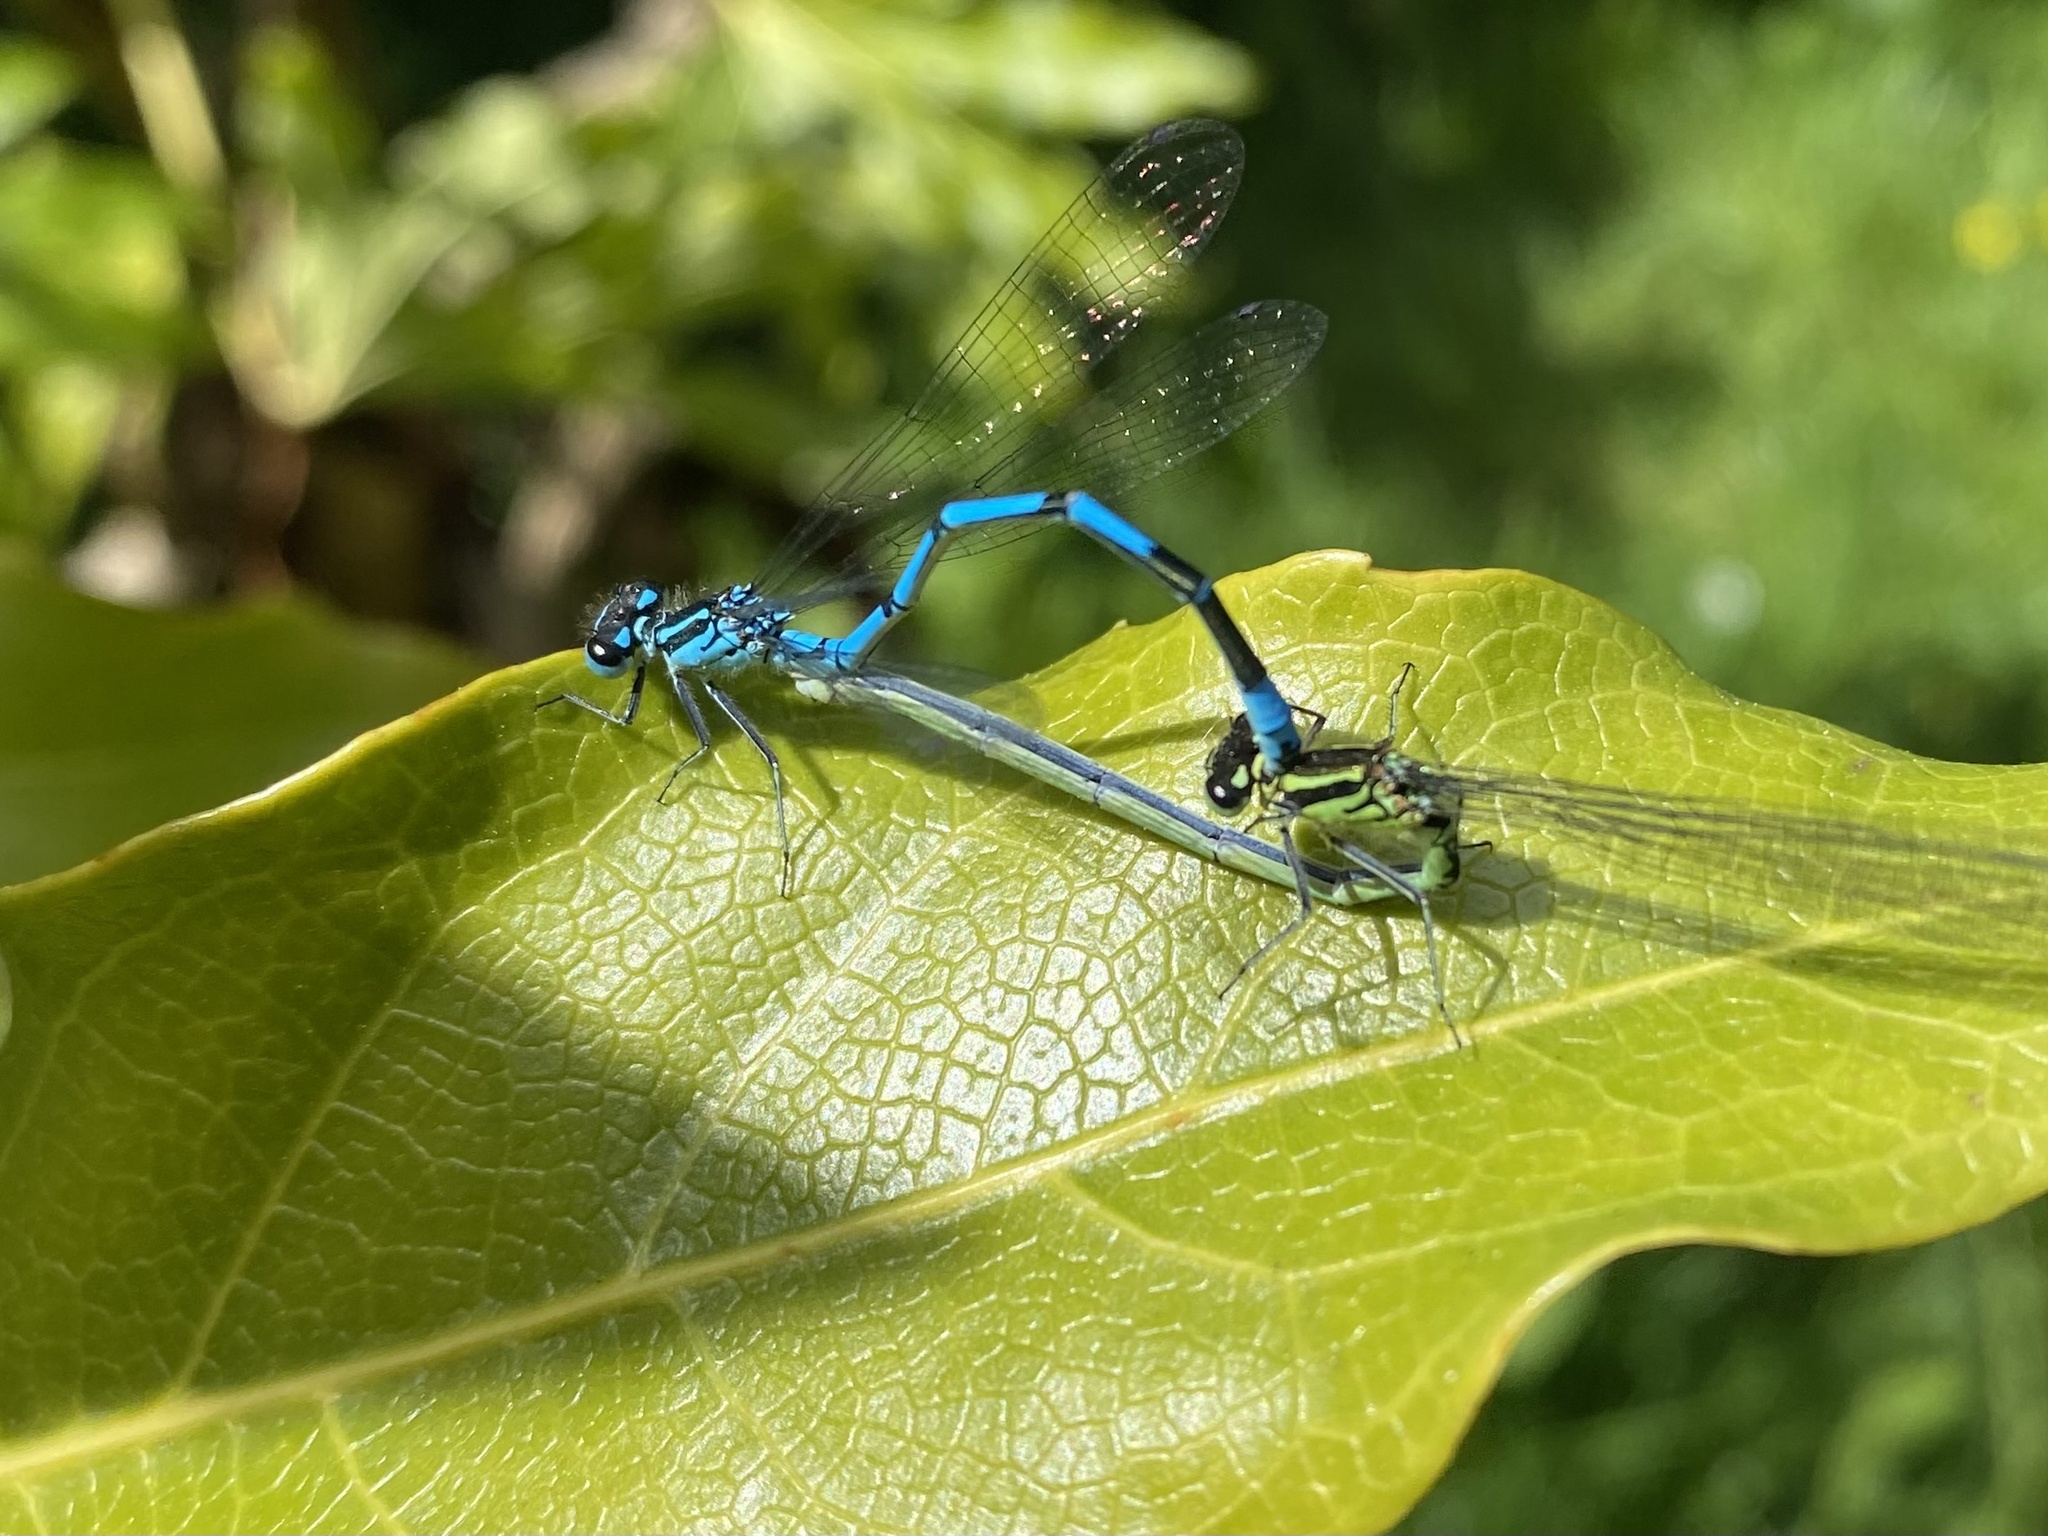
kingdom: Animalia
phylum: Arthropoda
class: Insecta
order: Odonata
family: Coenagrionidae
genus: Coenagrion
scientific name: Coenagrion puella
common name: Azure damselfly
